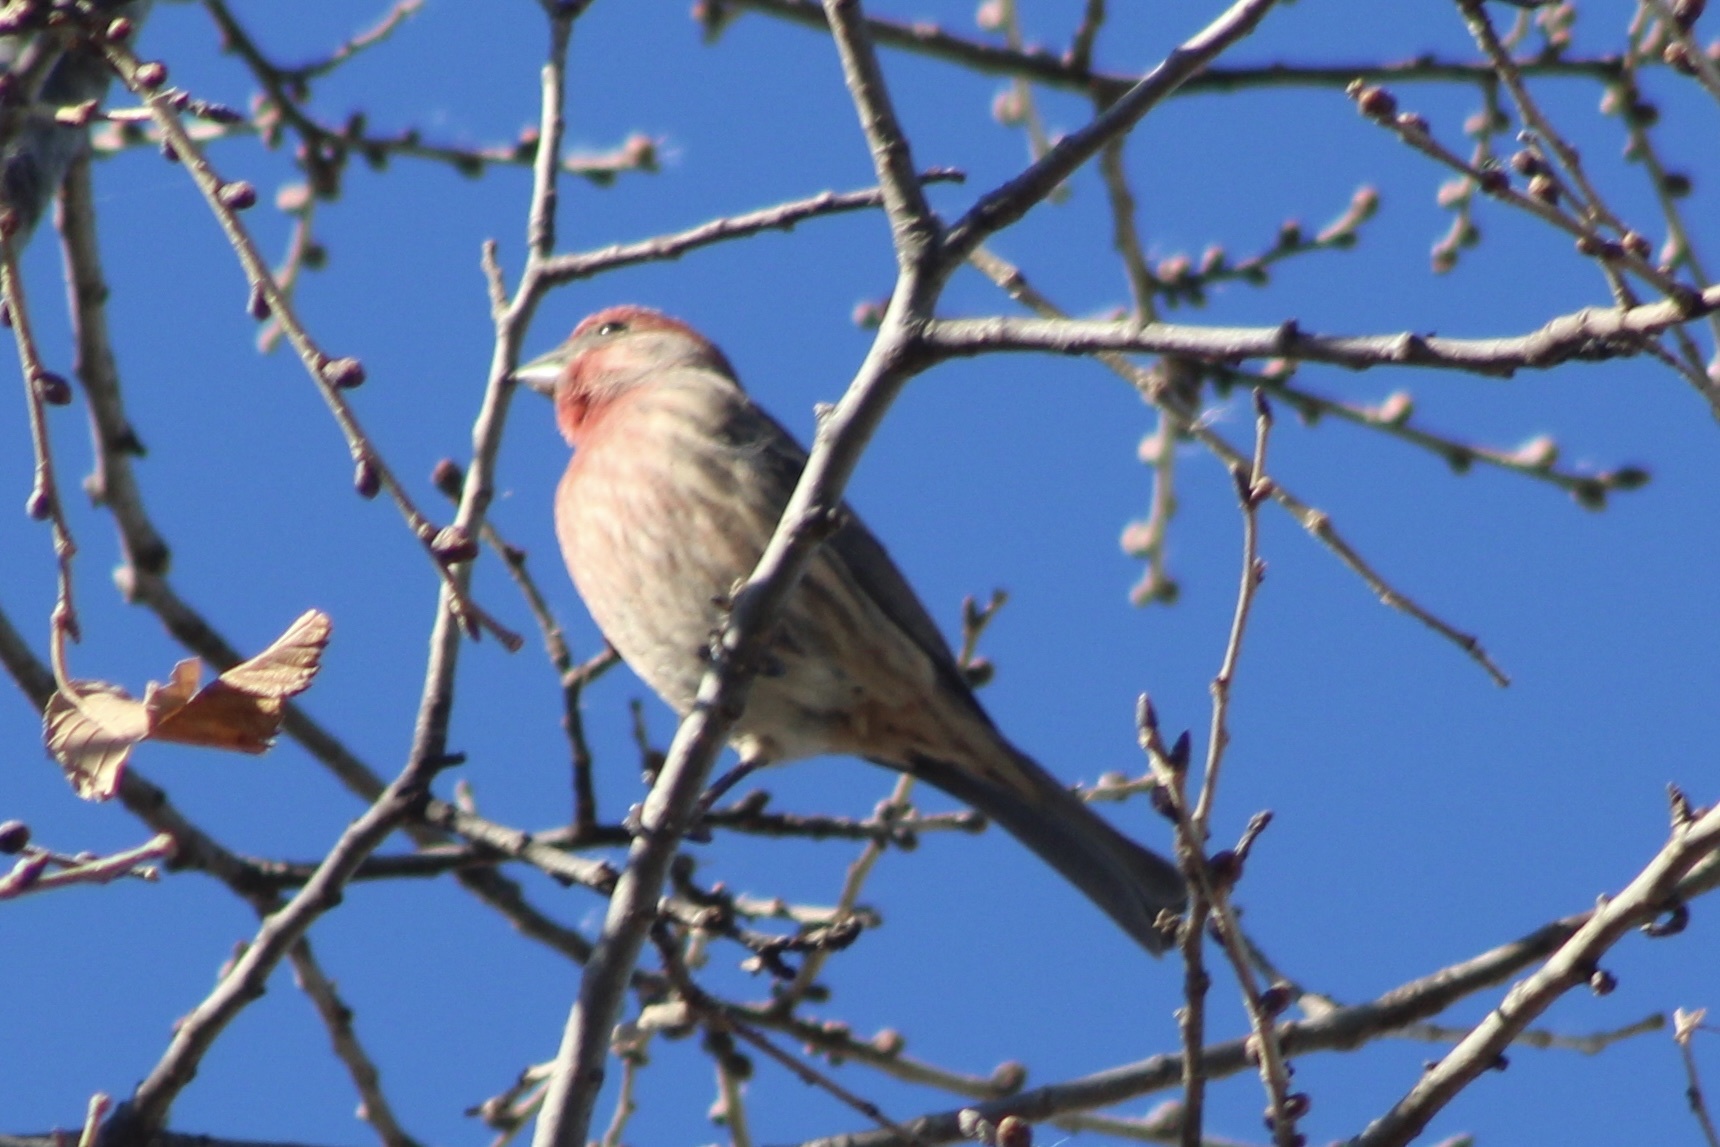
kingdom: Animalia
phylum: Chordata
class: Aves
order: Passeriformes
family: Fringillidae
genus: Haemorhous
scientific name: Haemorhous mexicanus
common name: House finch
